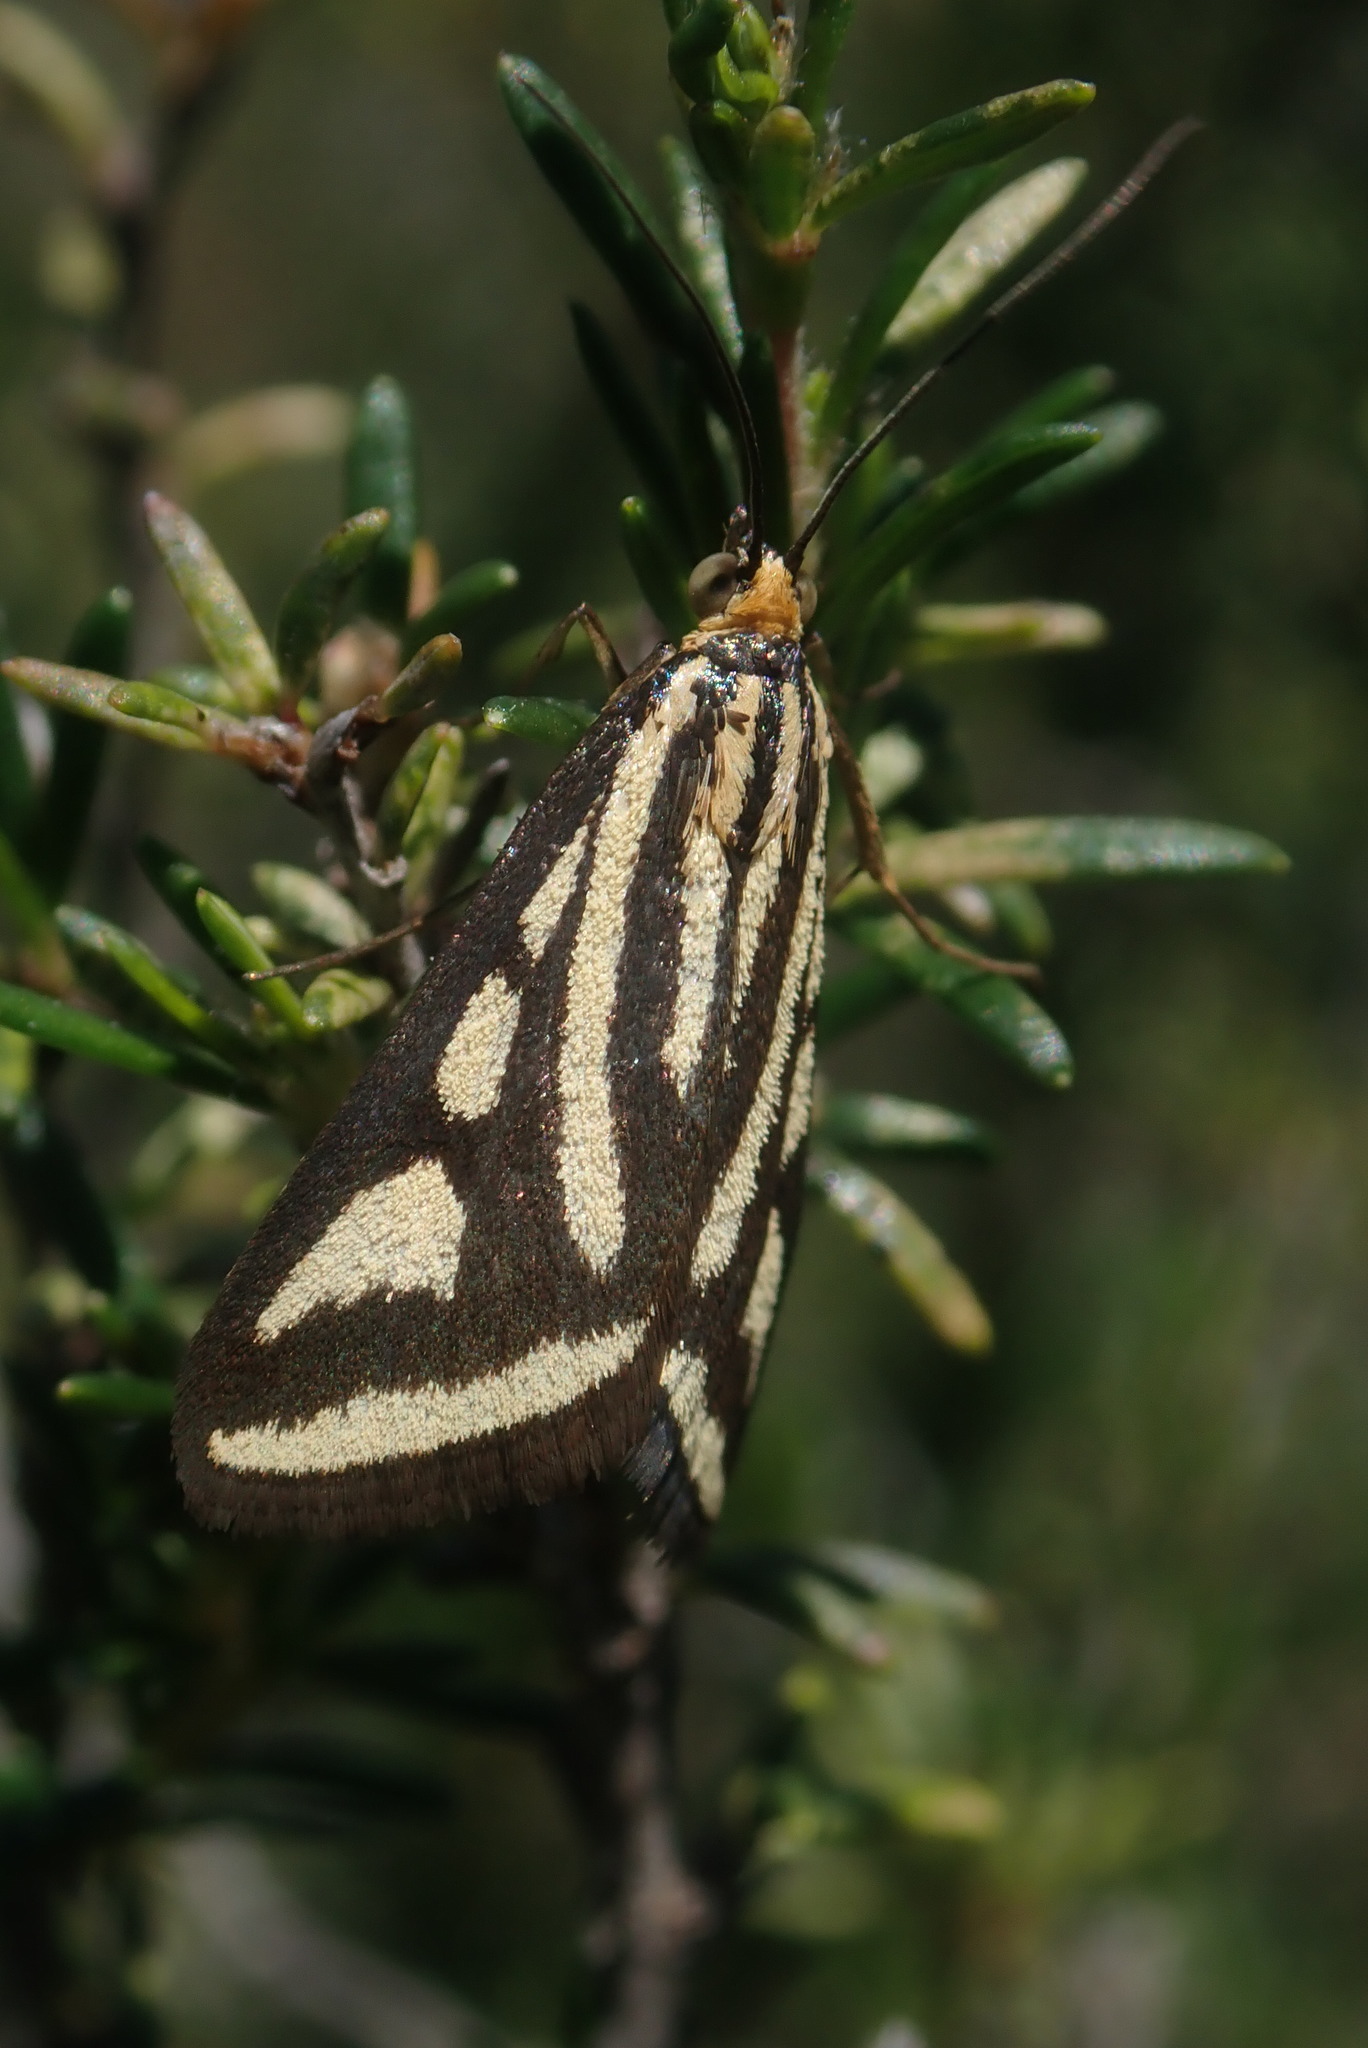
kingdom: Animalia
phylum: Arthropoda
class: Insecta
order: Lepidoptera
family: Crambidae
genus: Loxostege
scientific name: Loxostege venustalis
